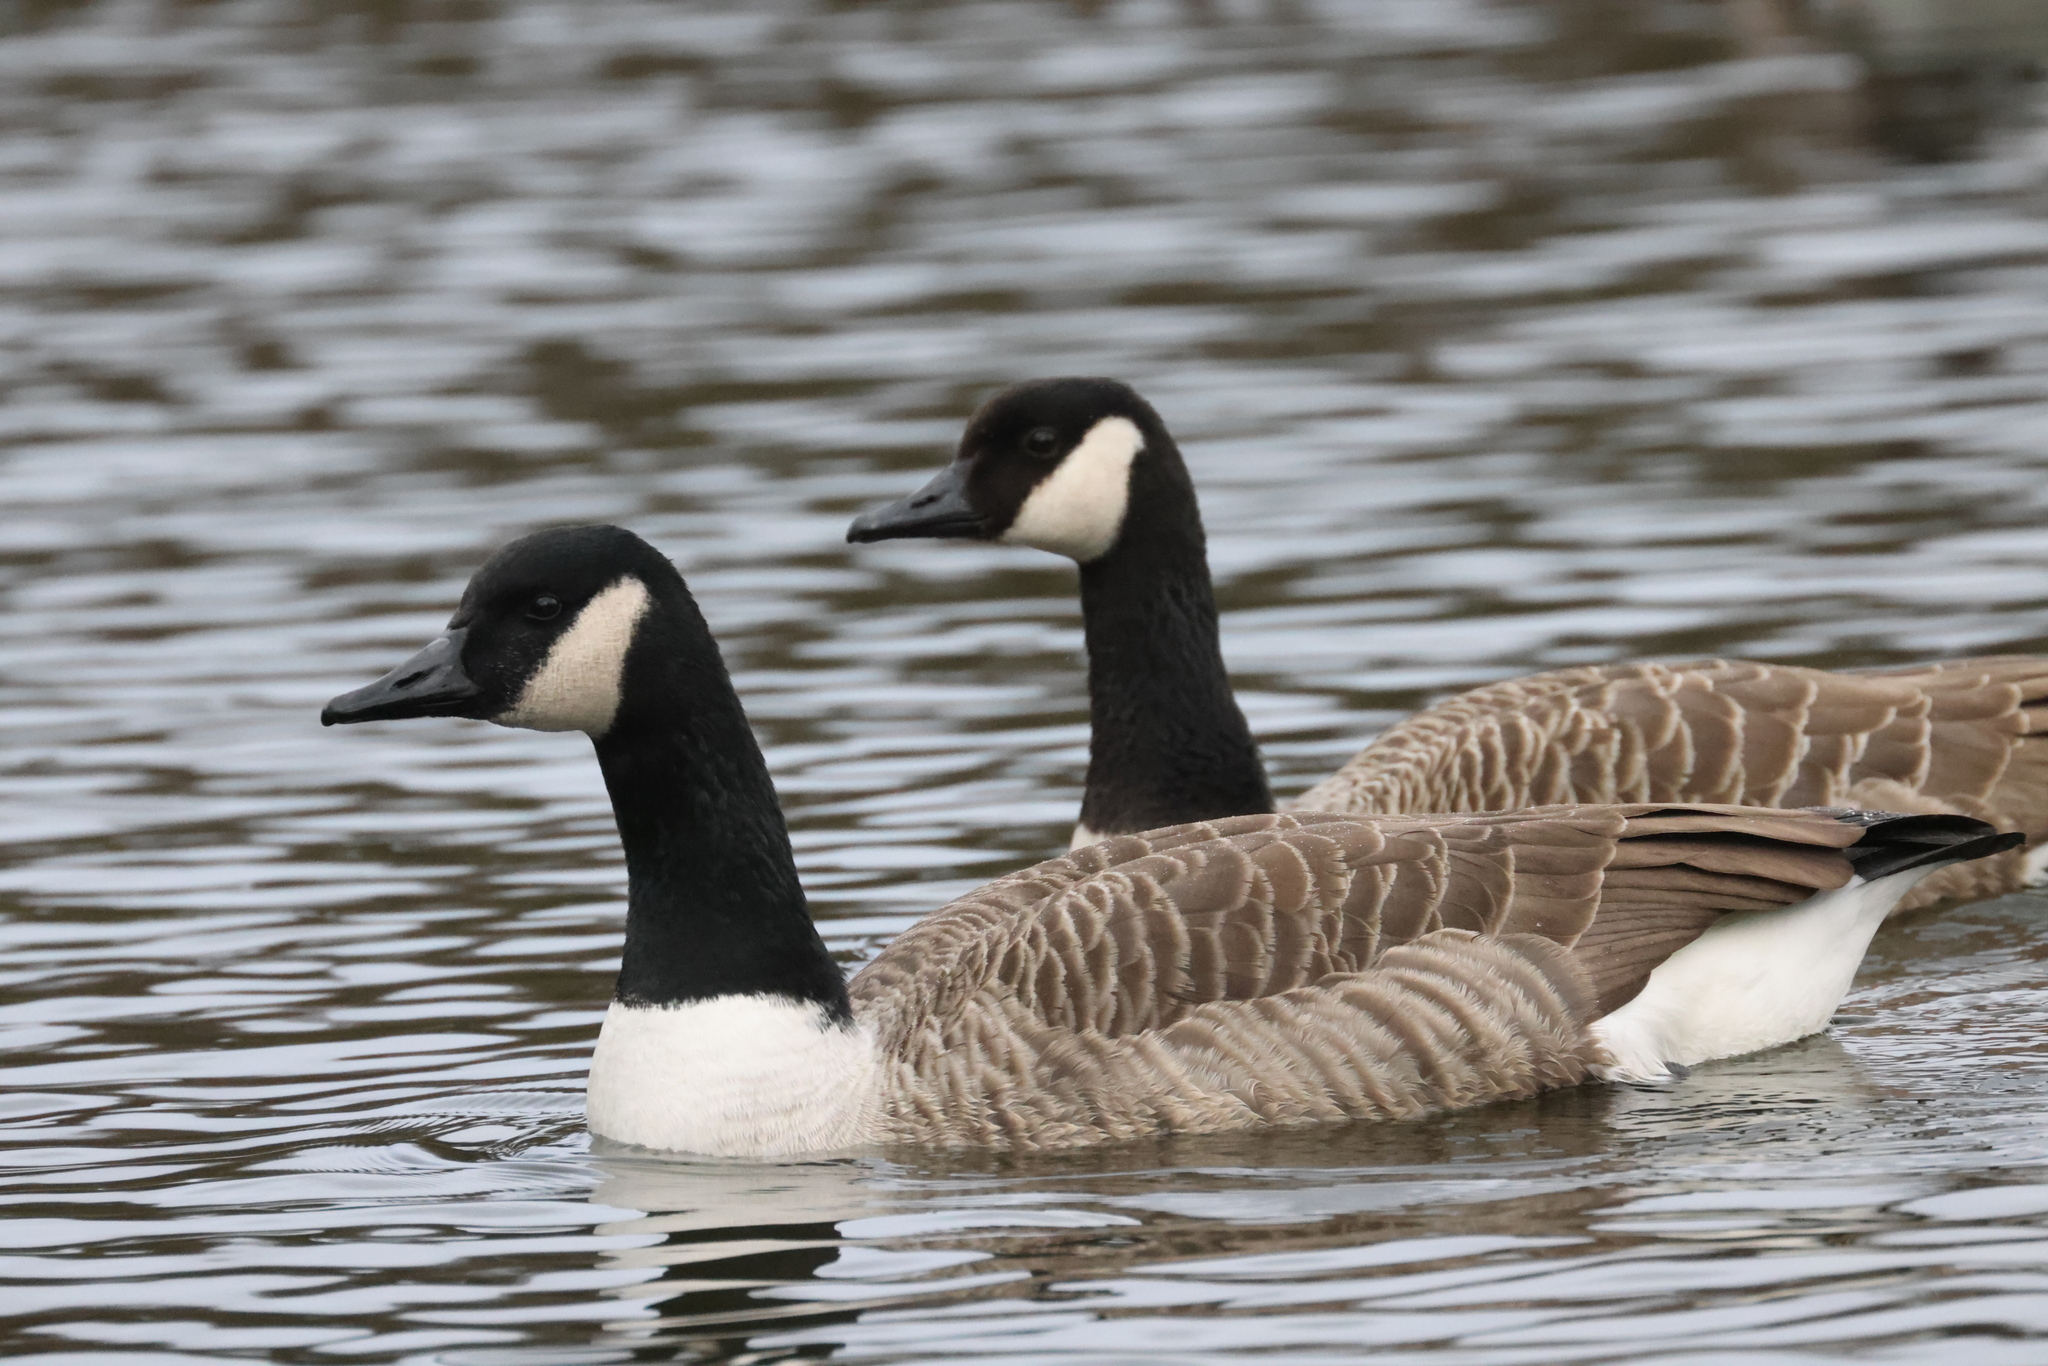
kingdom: Animalia
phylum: Chordata
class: Aves
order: Anseriformes
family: Anatidae
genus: Branta
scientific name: Branta canadensis
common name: Canada goose
